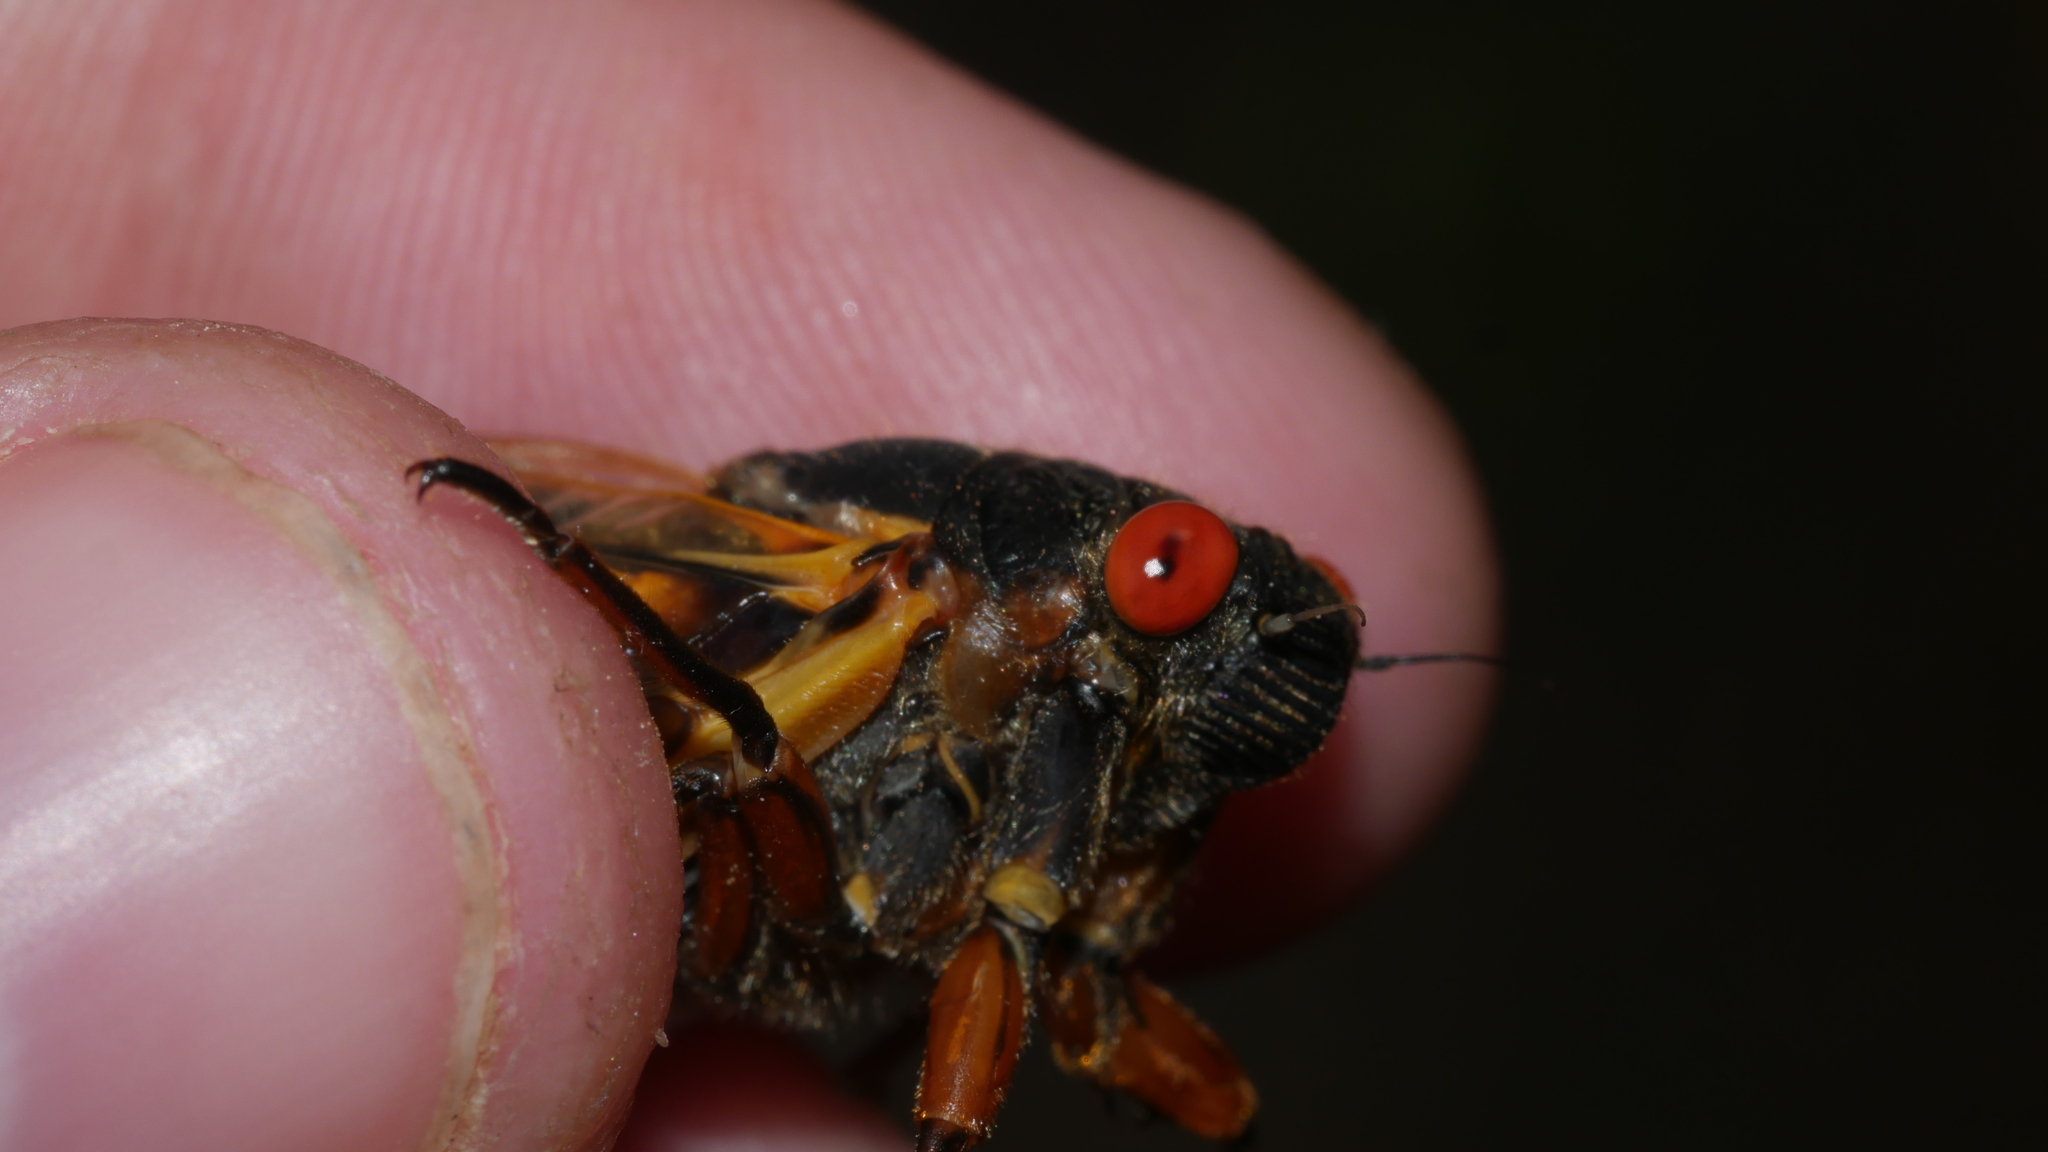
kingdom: Animalia
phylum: Arthropoda
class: Insecta
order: Hemiptera
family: Cicadidae
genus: Magicicada
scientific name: Magicicada septendecim
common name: Periodical cicada
